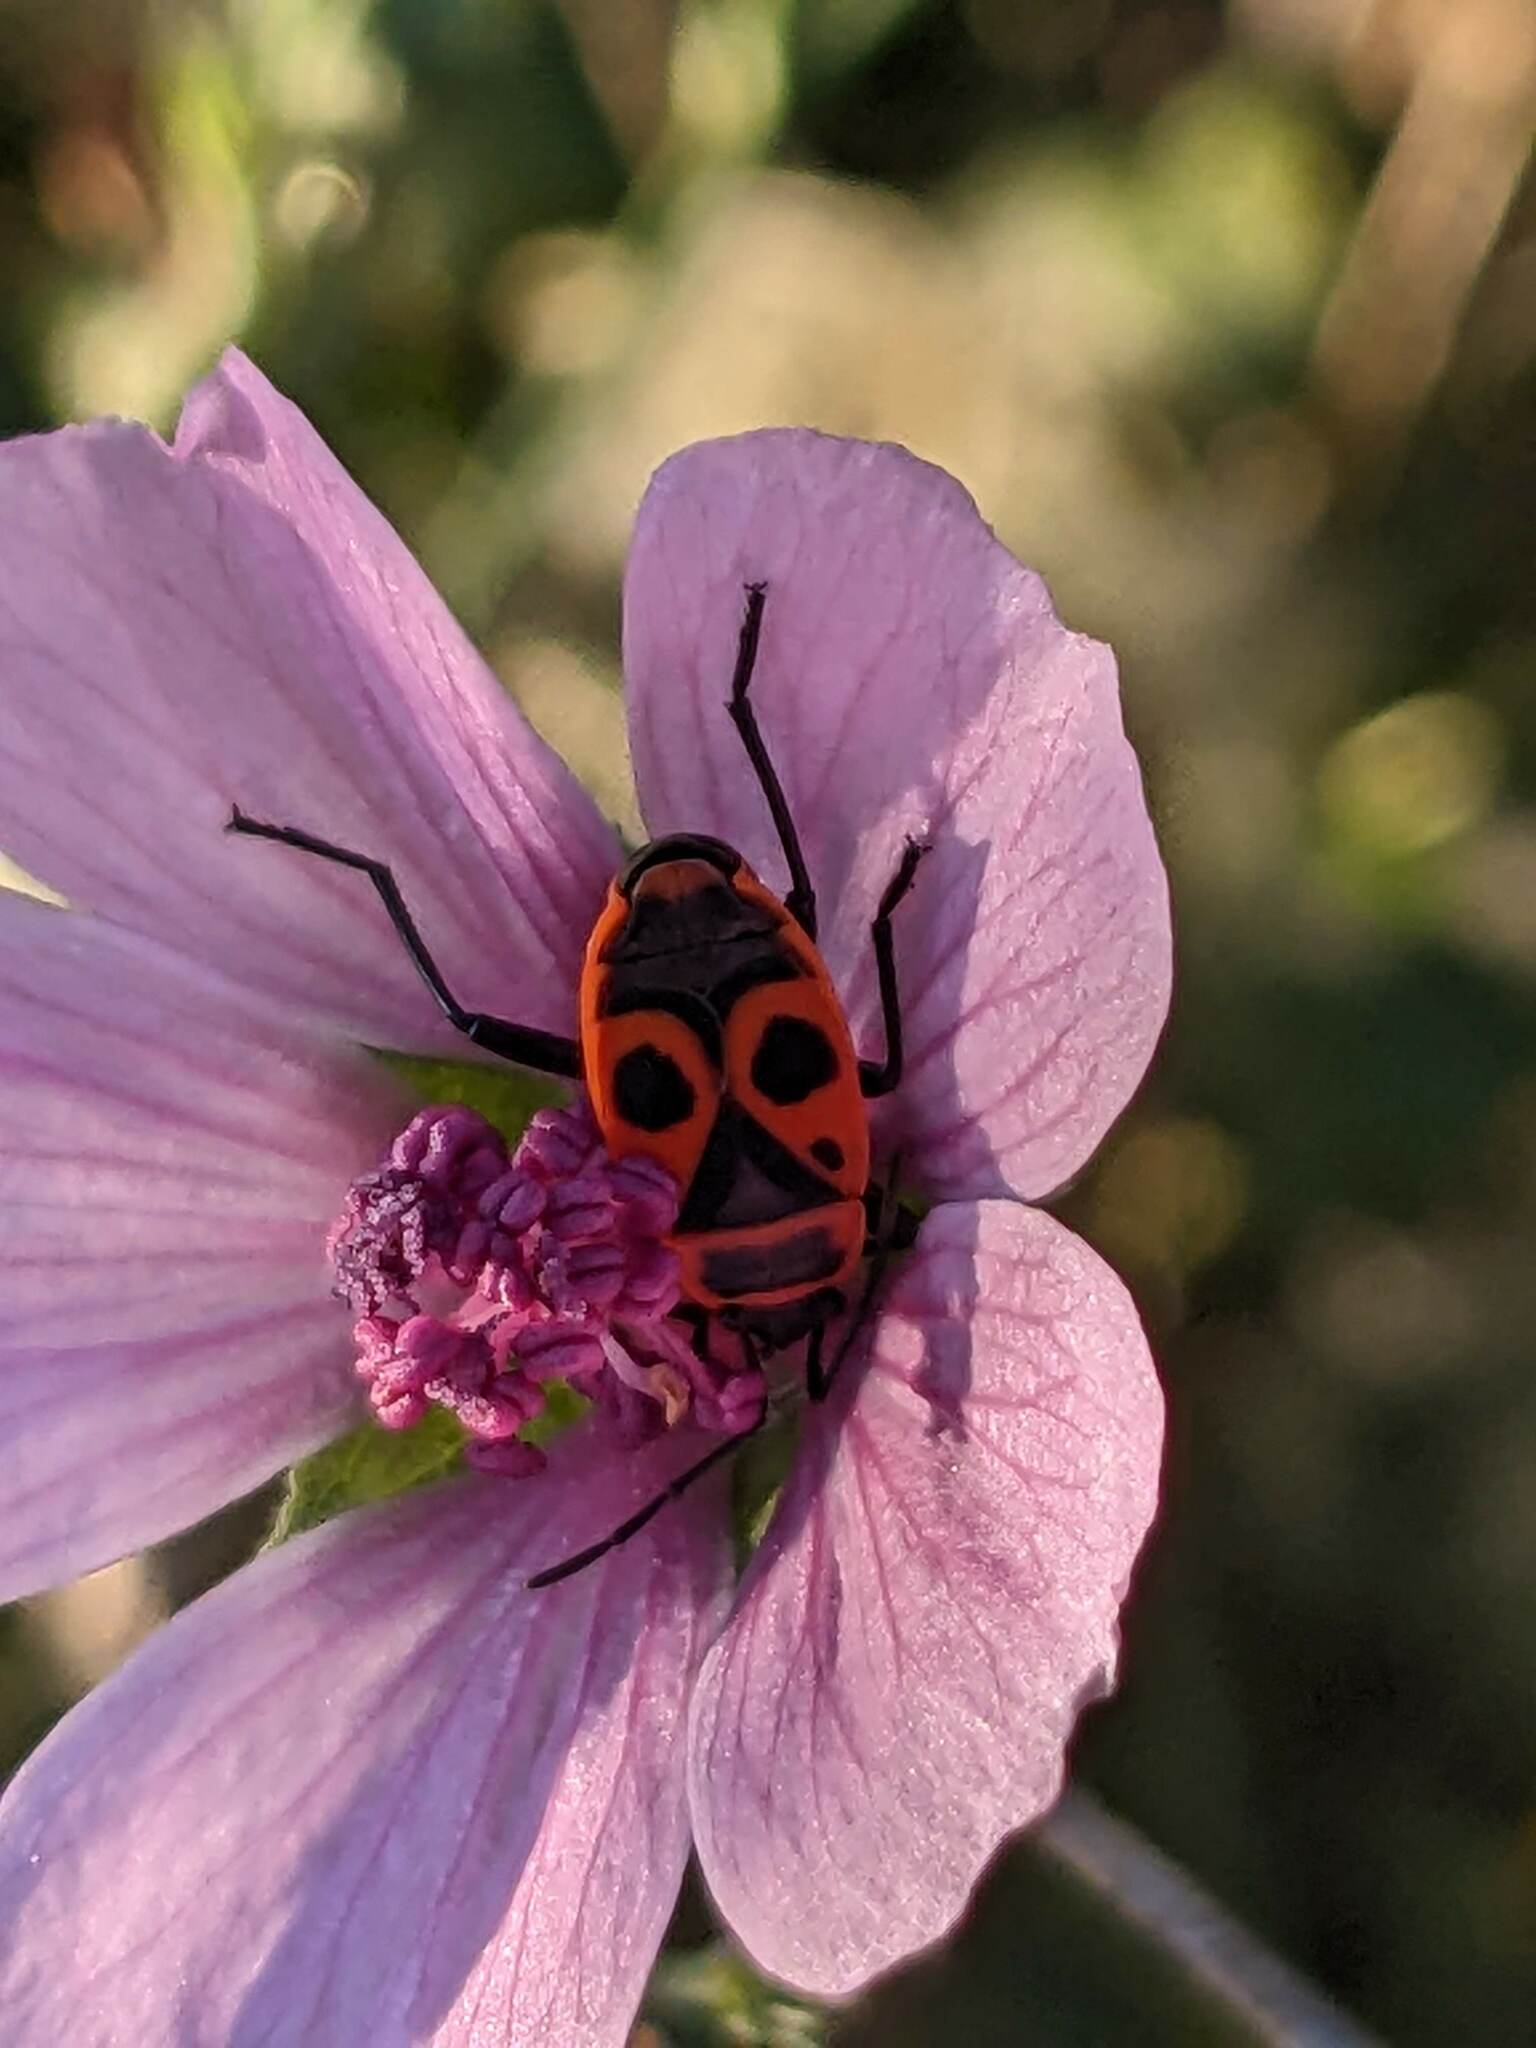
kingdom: Animalia
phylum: Arthropoda
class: Insecta
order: Hemiptera
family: Pyrrhocoridae
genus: Pyrrhocoris
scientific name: Pyrrhocoris apterus
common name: Firebug
